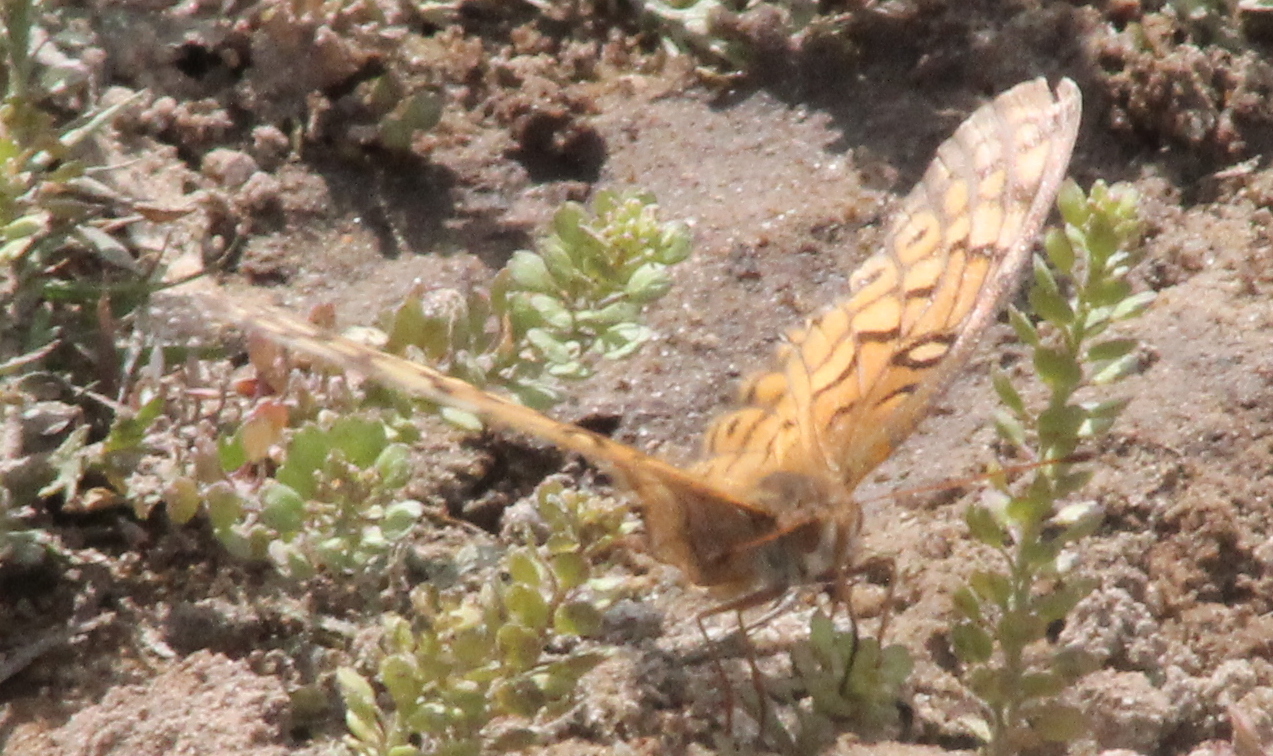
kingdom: Animalia
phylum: Arthropoda
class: Insecta
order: Lepidoptera
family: Nymphalidae
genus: Euptoieta
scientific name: Euptoieta claudia
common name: Variegated fritillary
